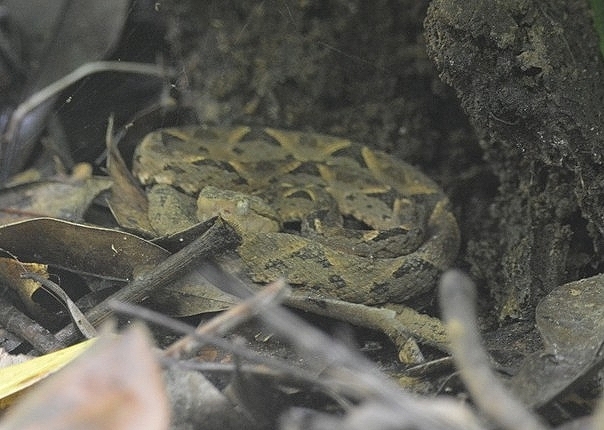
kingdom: Animalia
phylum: Chordata
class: Squamata
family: Viperidae
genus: Bothrops
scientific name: Bothrops asper
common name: Terciopelo
